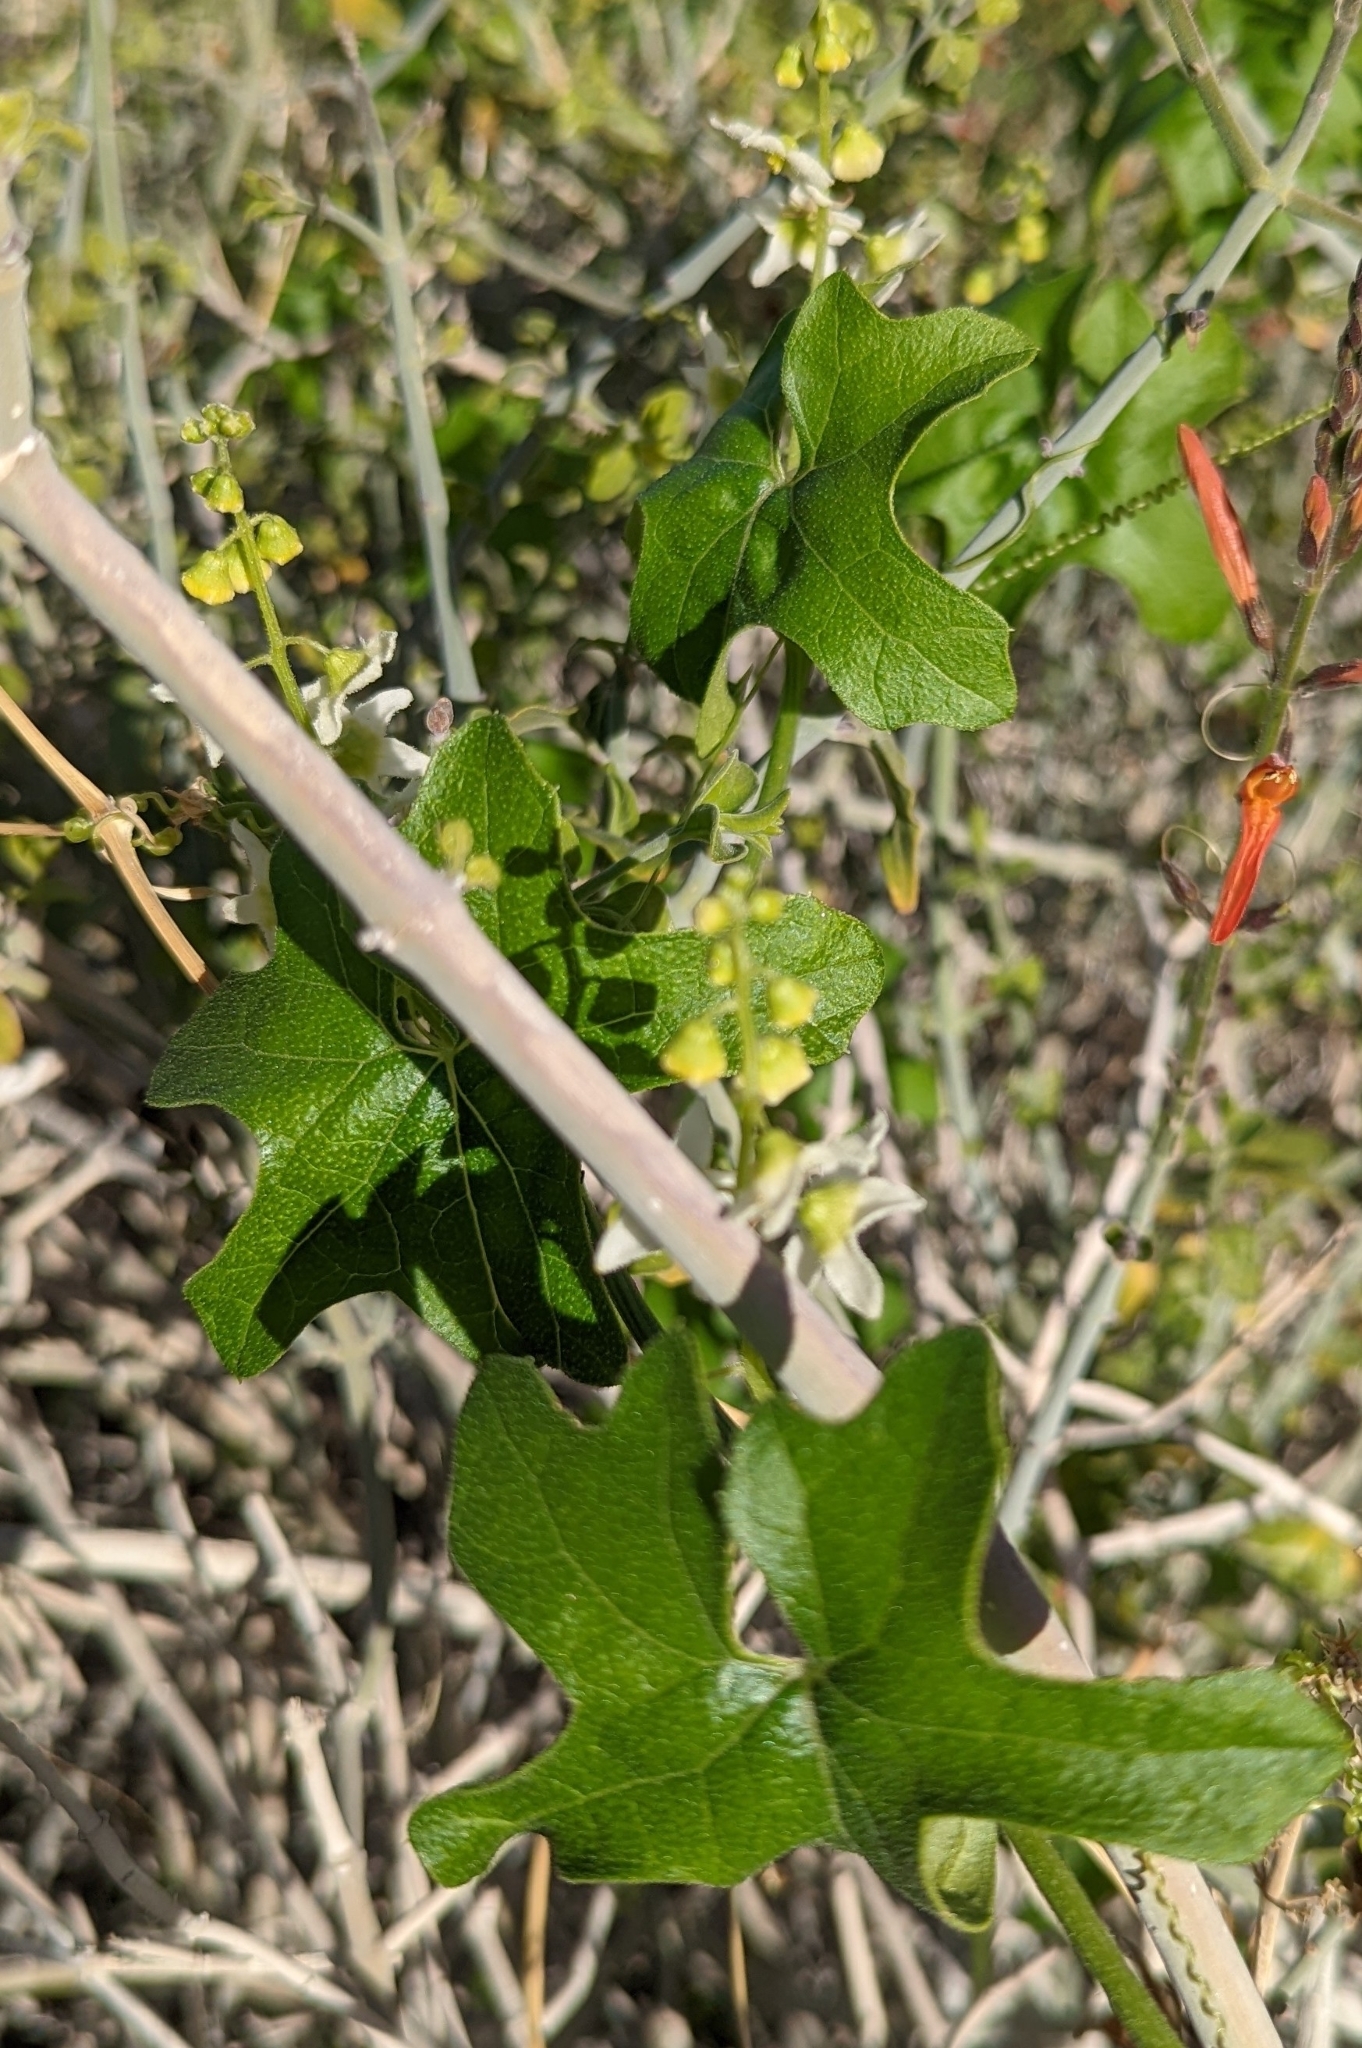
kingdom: Plantae
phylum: Tracheophyta
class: Magnoliopsida
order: Cucurbitales
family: Cucurbitaceae
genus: Marah
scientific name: Marah macrocarpa
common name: Cucamonga manroot
